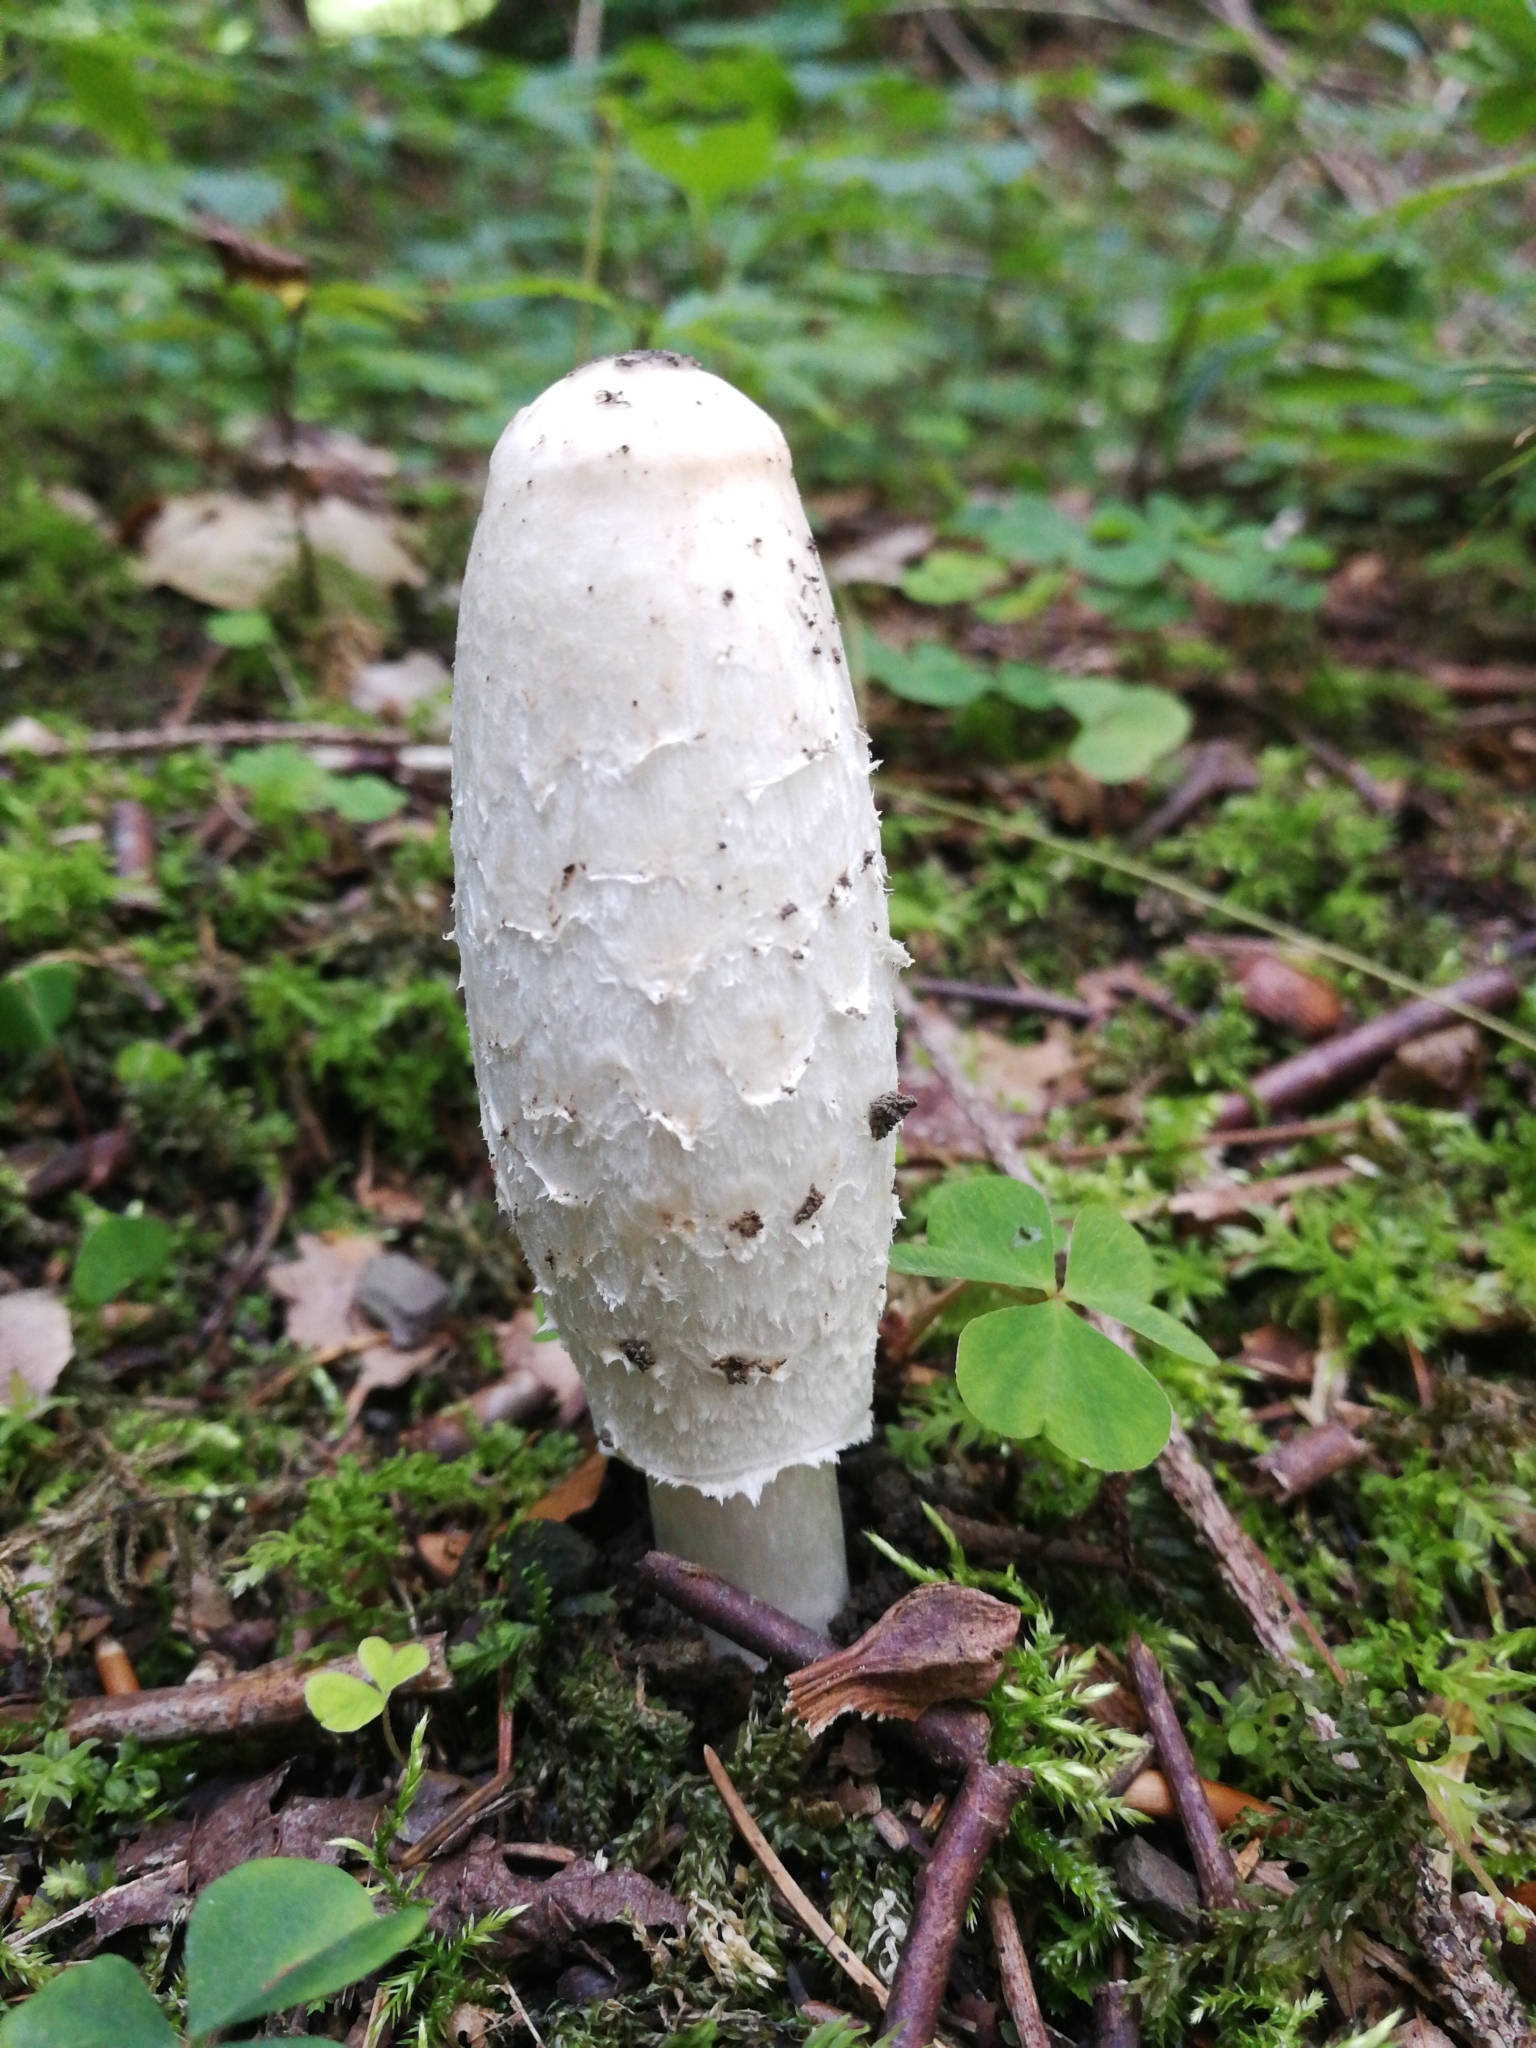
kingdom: Fungi
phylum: Basidiomycota
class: Agaricomycetes
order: Agaricales
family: Agaricaceae
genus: Coprinus
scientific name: Coprinus comatus
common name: Lawyer's wig
